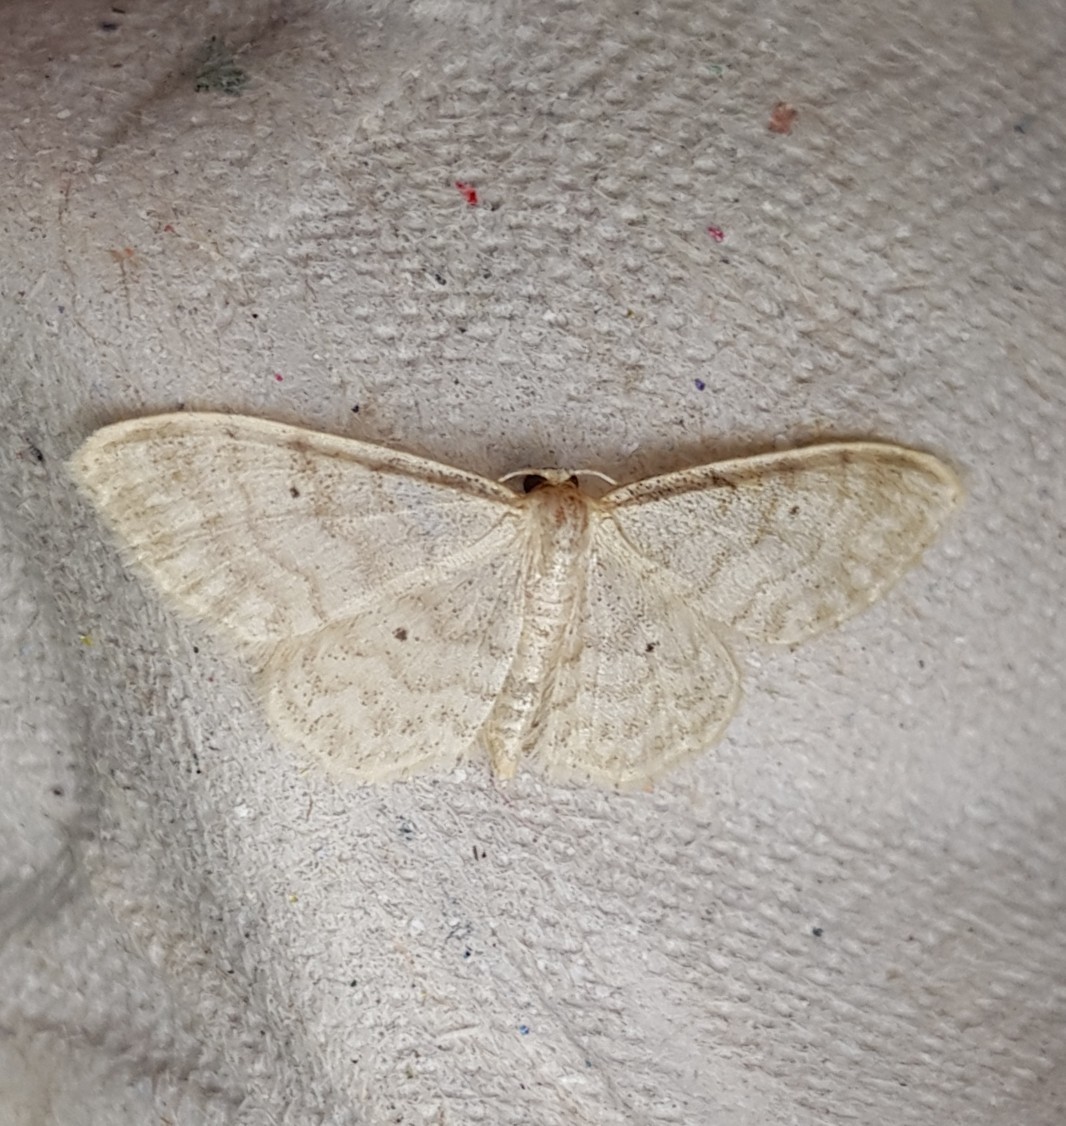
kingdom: Animalia
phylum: Arthropoda
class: Insecta
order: Lepidoptera
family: Geometridae
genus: Idaea
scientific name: Idaea fuscovenosa
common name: Dwarf cream wave
